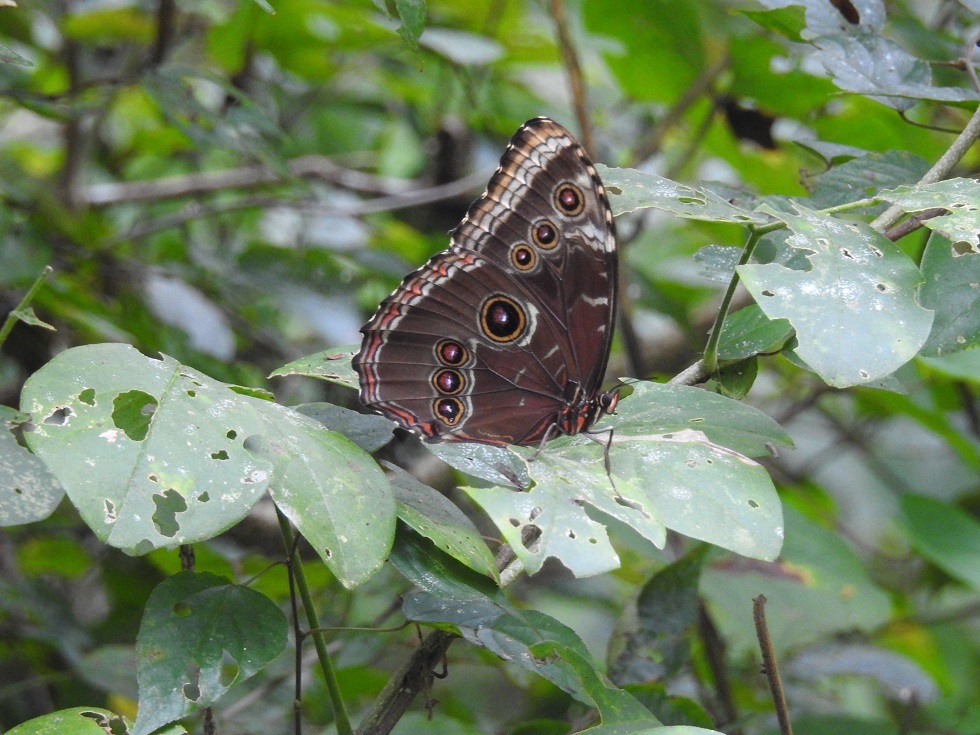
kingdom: Animalia
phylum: Arthropoda
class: Insecta
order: Lepidoptera
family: Nymphalidae
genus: Morpho
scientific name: Morpho helenor
